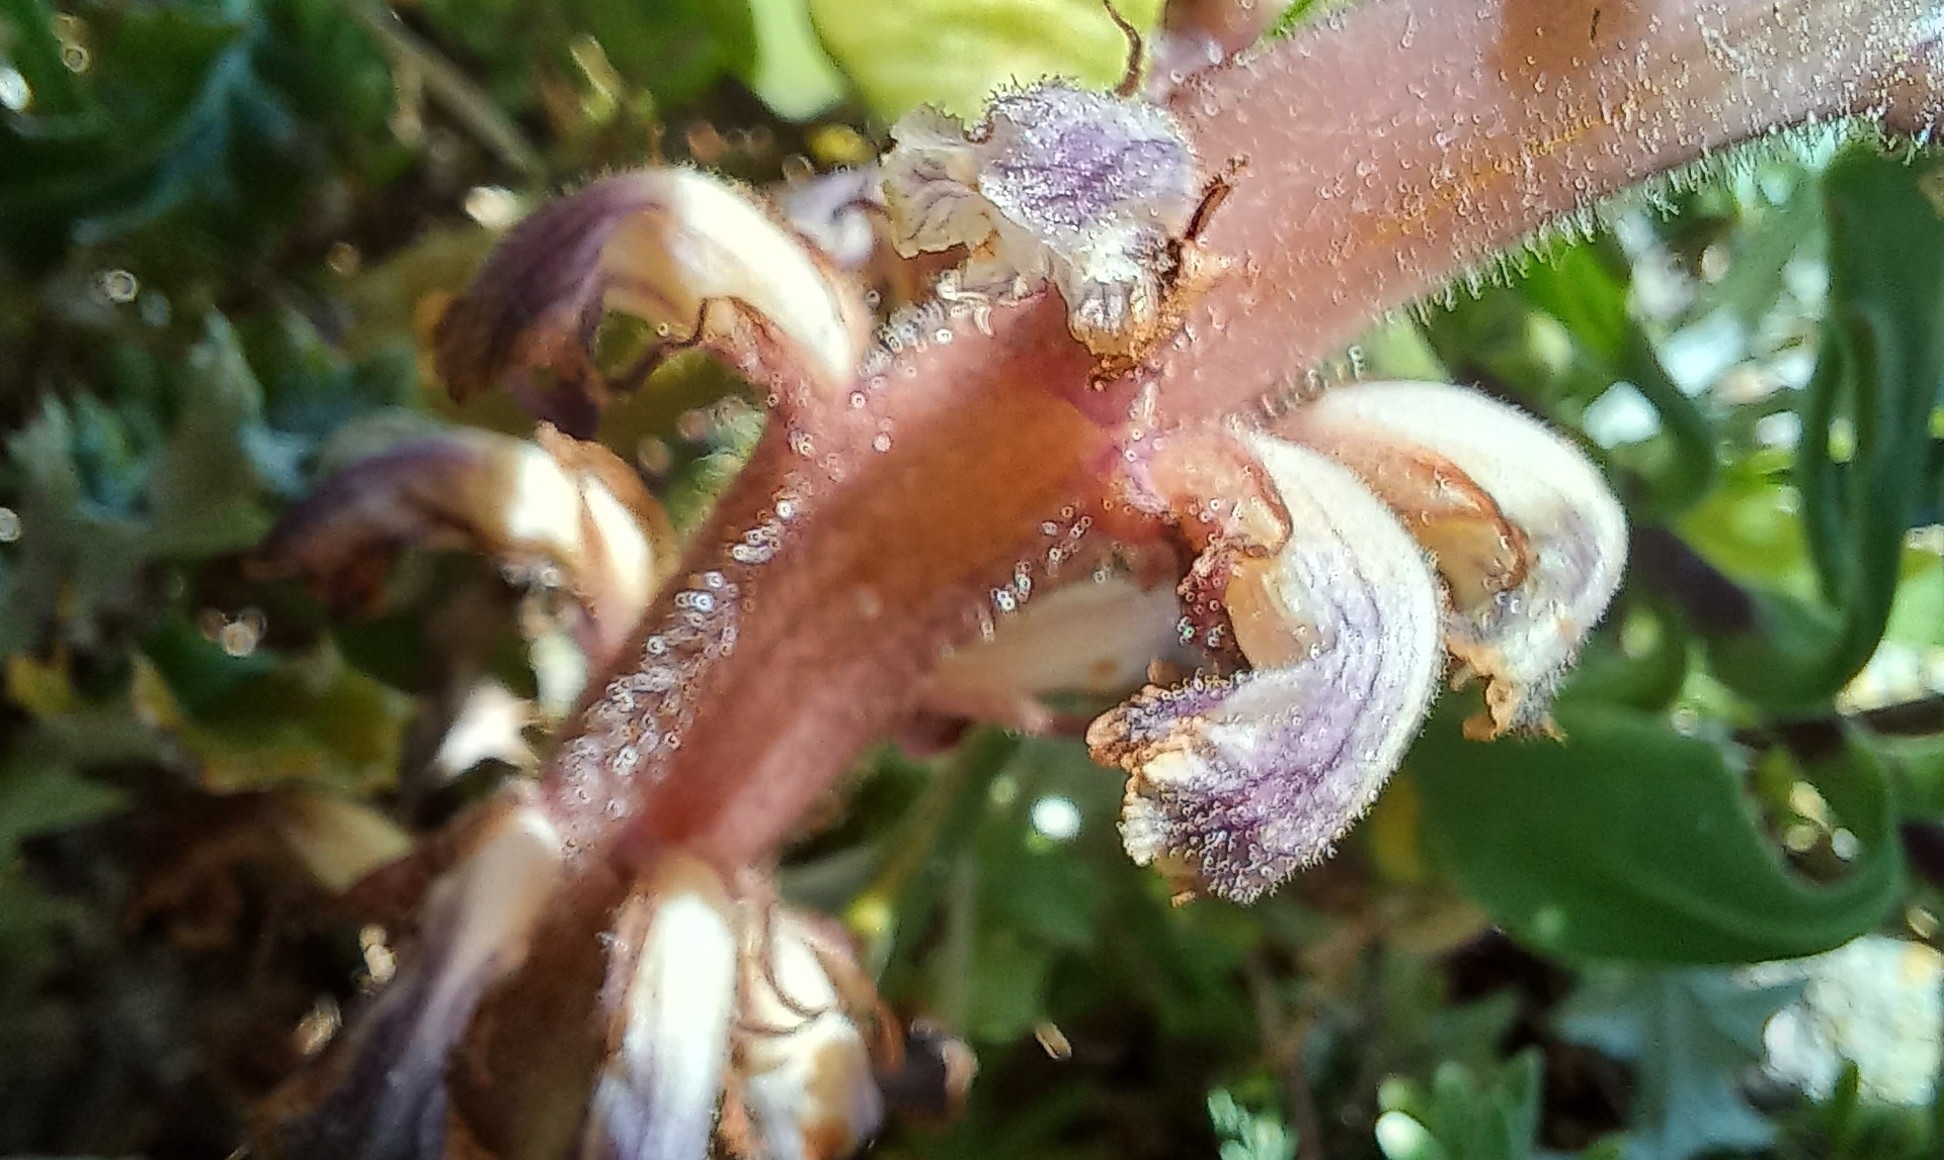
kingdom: Plantae
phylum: Tracheophyta
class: Magnoliopsida
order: Lamiales
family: Orobanchaceae
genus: Orobanche
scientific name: Orobanche minor
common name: Common broomrape
